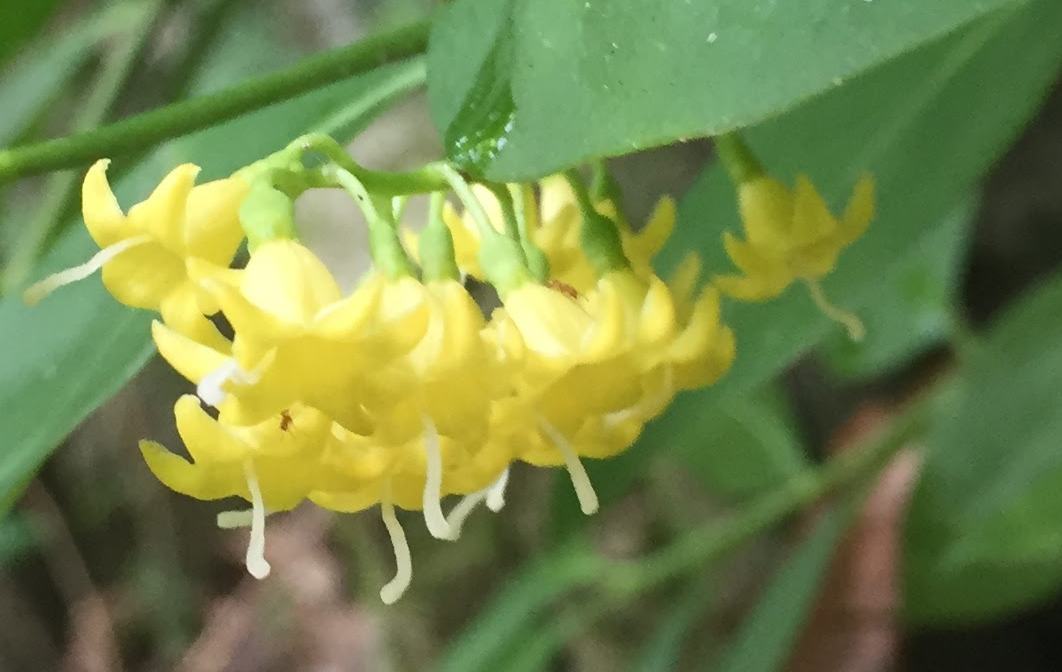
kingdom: Plantae
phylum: Tracheophyta
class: Magnoliopsida
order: Gentianales
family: Rubiaceae
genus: Chiococca
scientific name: Chiococca alba
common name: Snowberry
